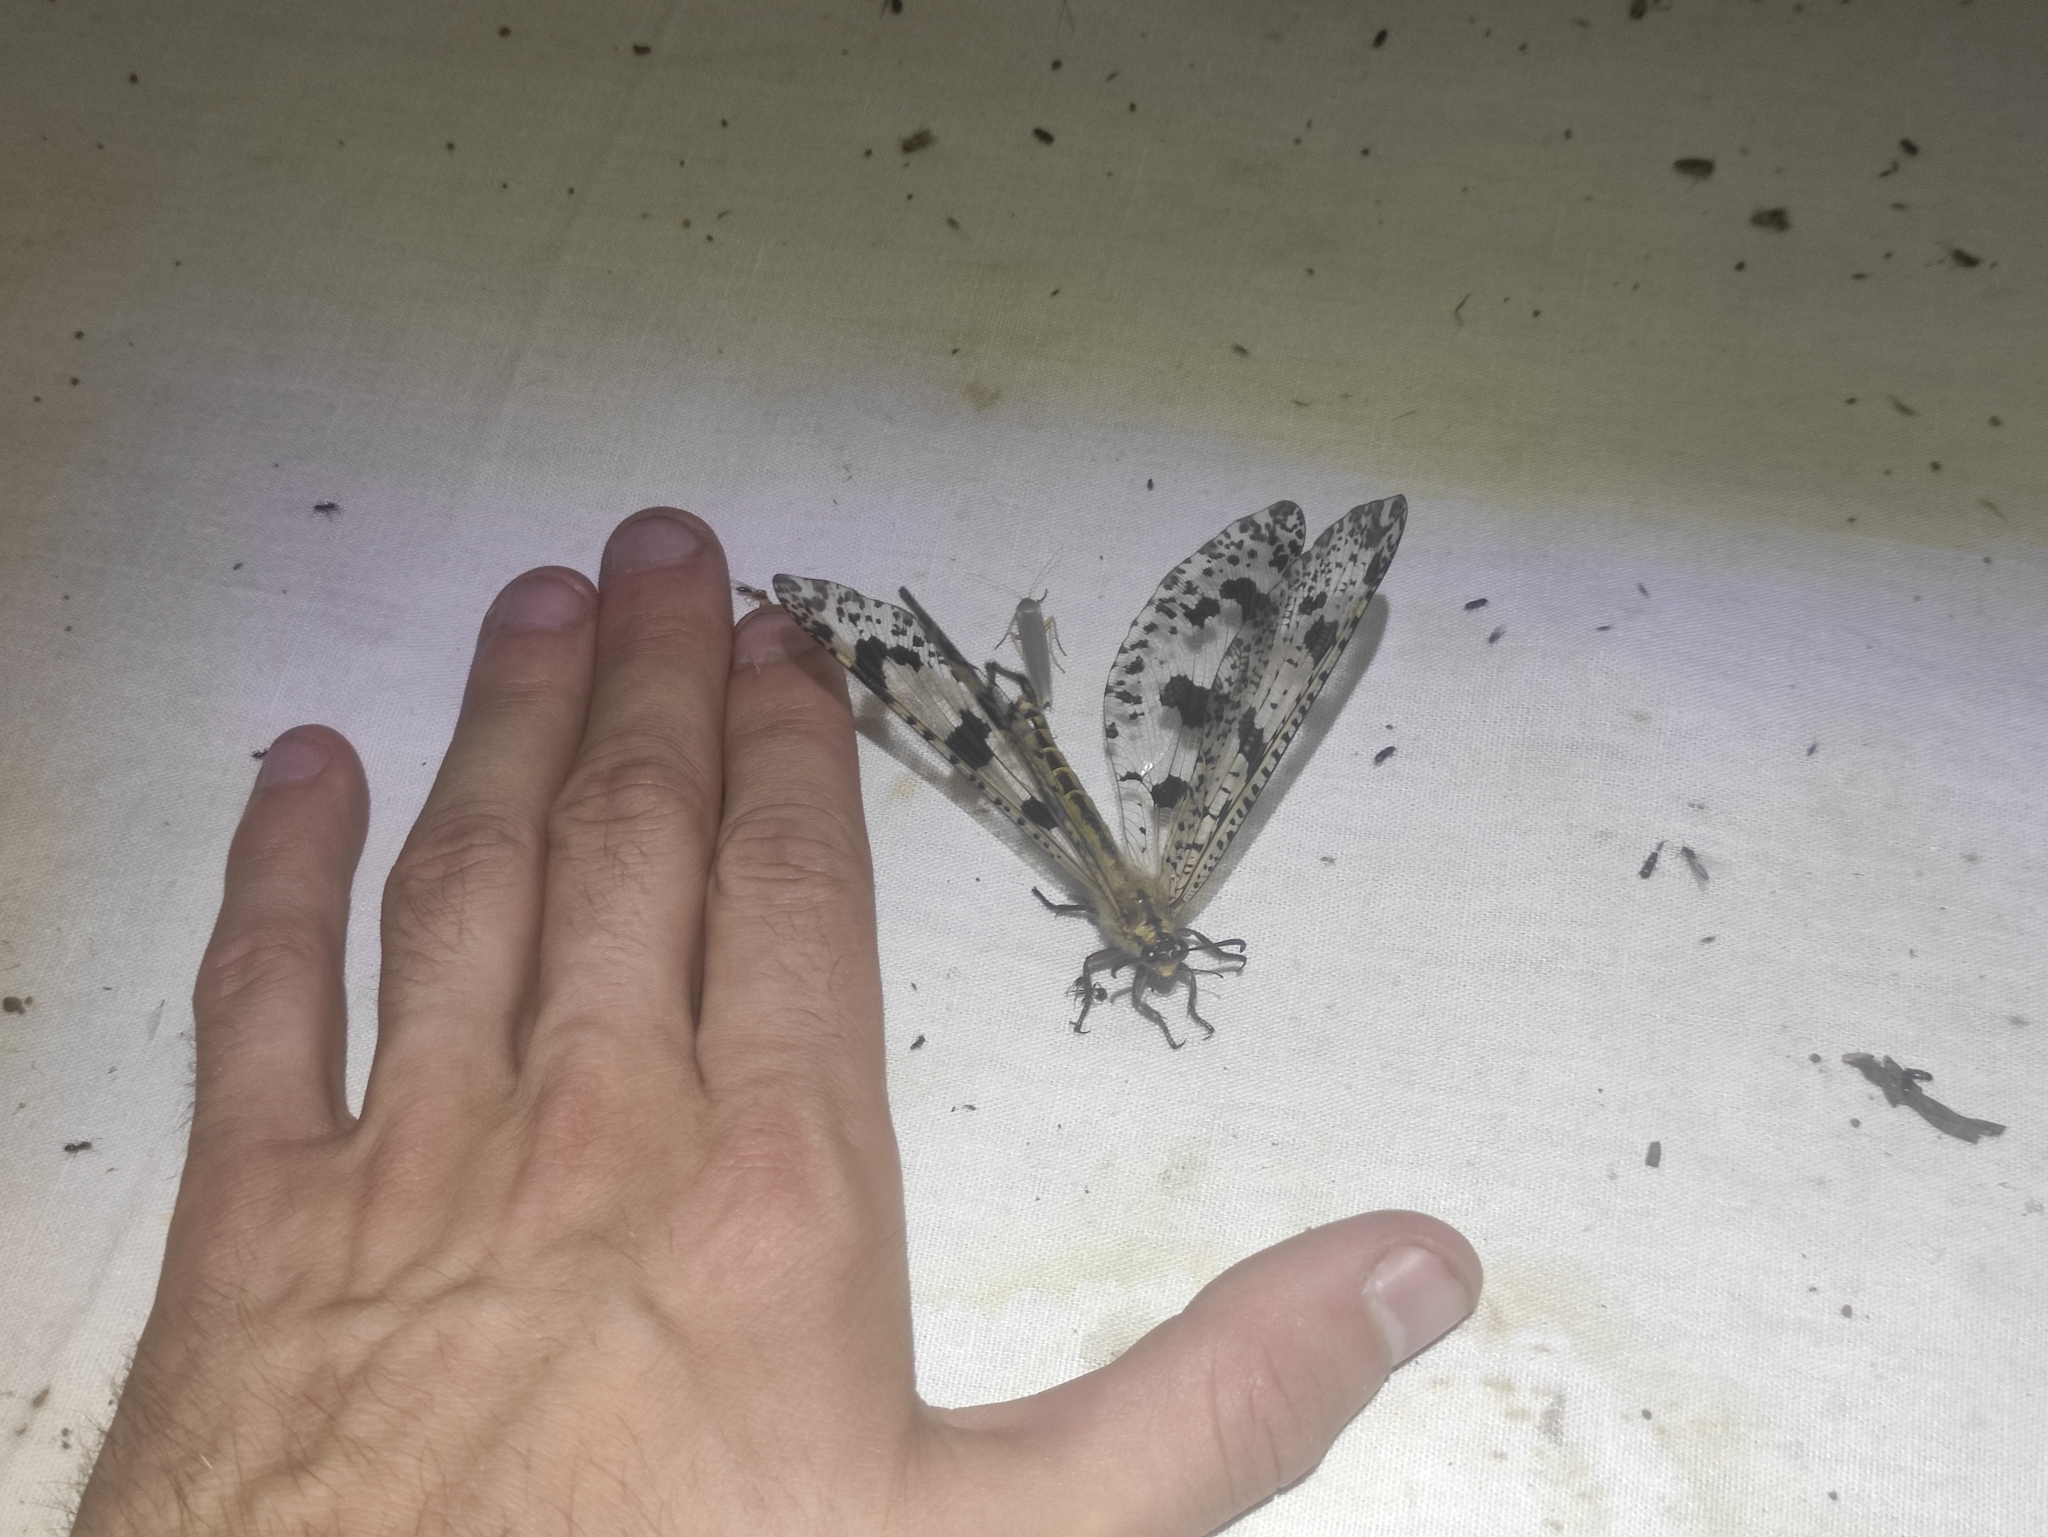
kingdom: Animalia
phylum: Arthropoda
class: Insecta
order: Neuroptera
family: Myrmeleontidae
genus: Palpares
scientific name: Palpares libelluloides
